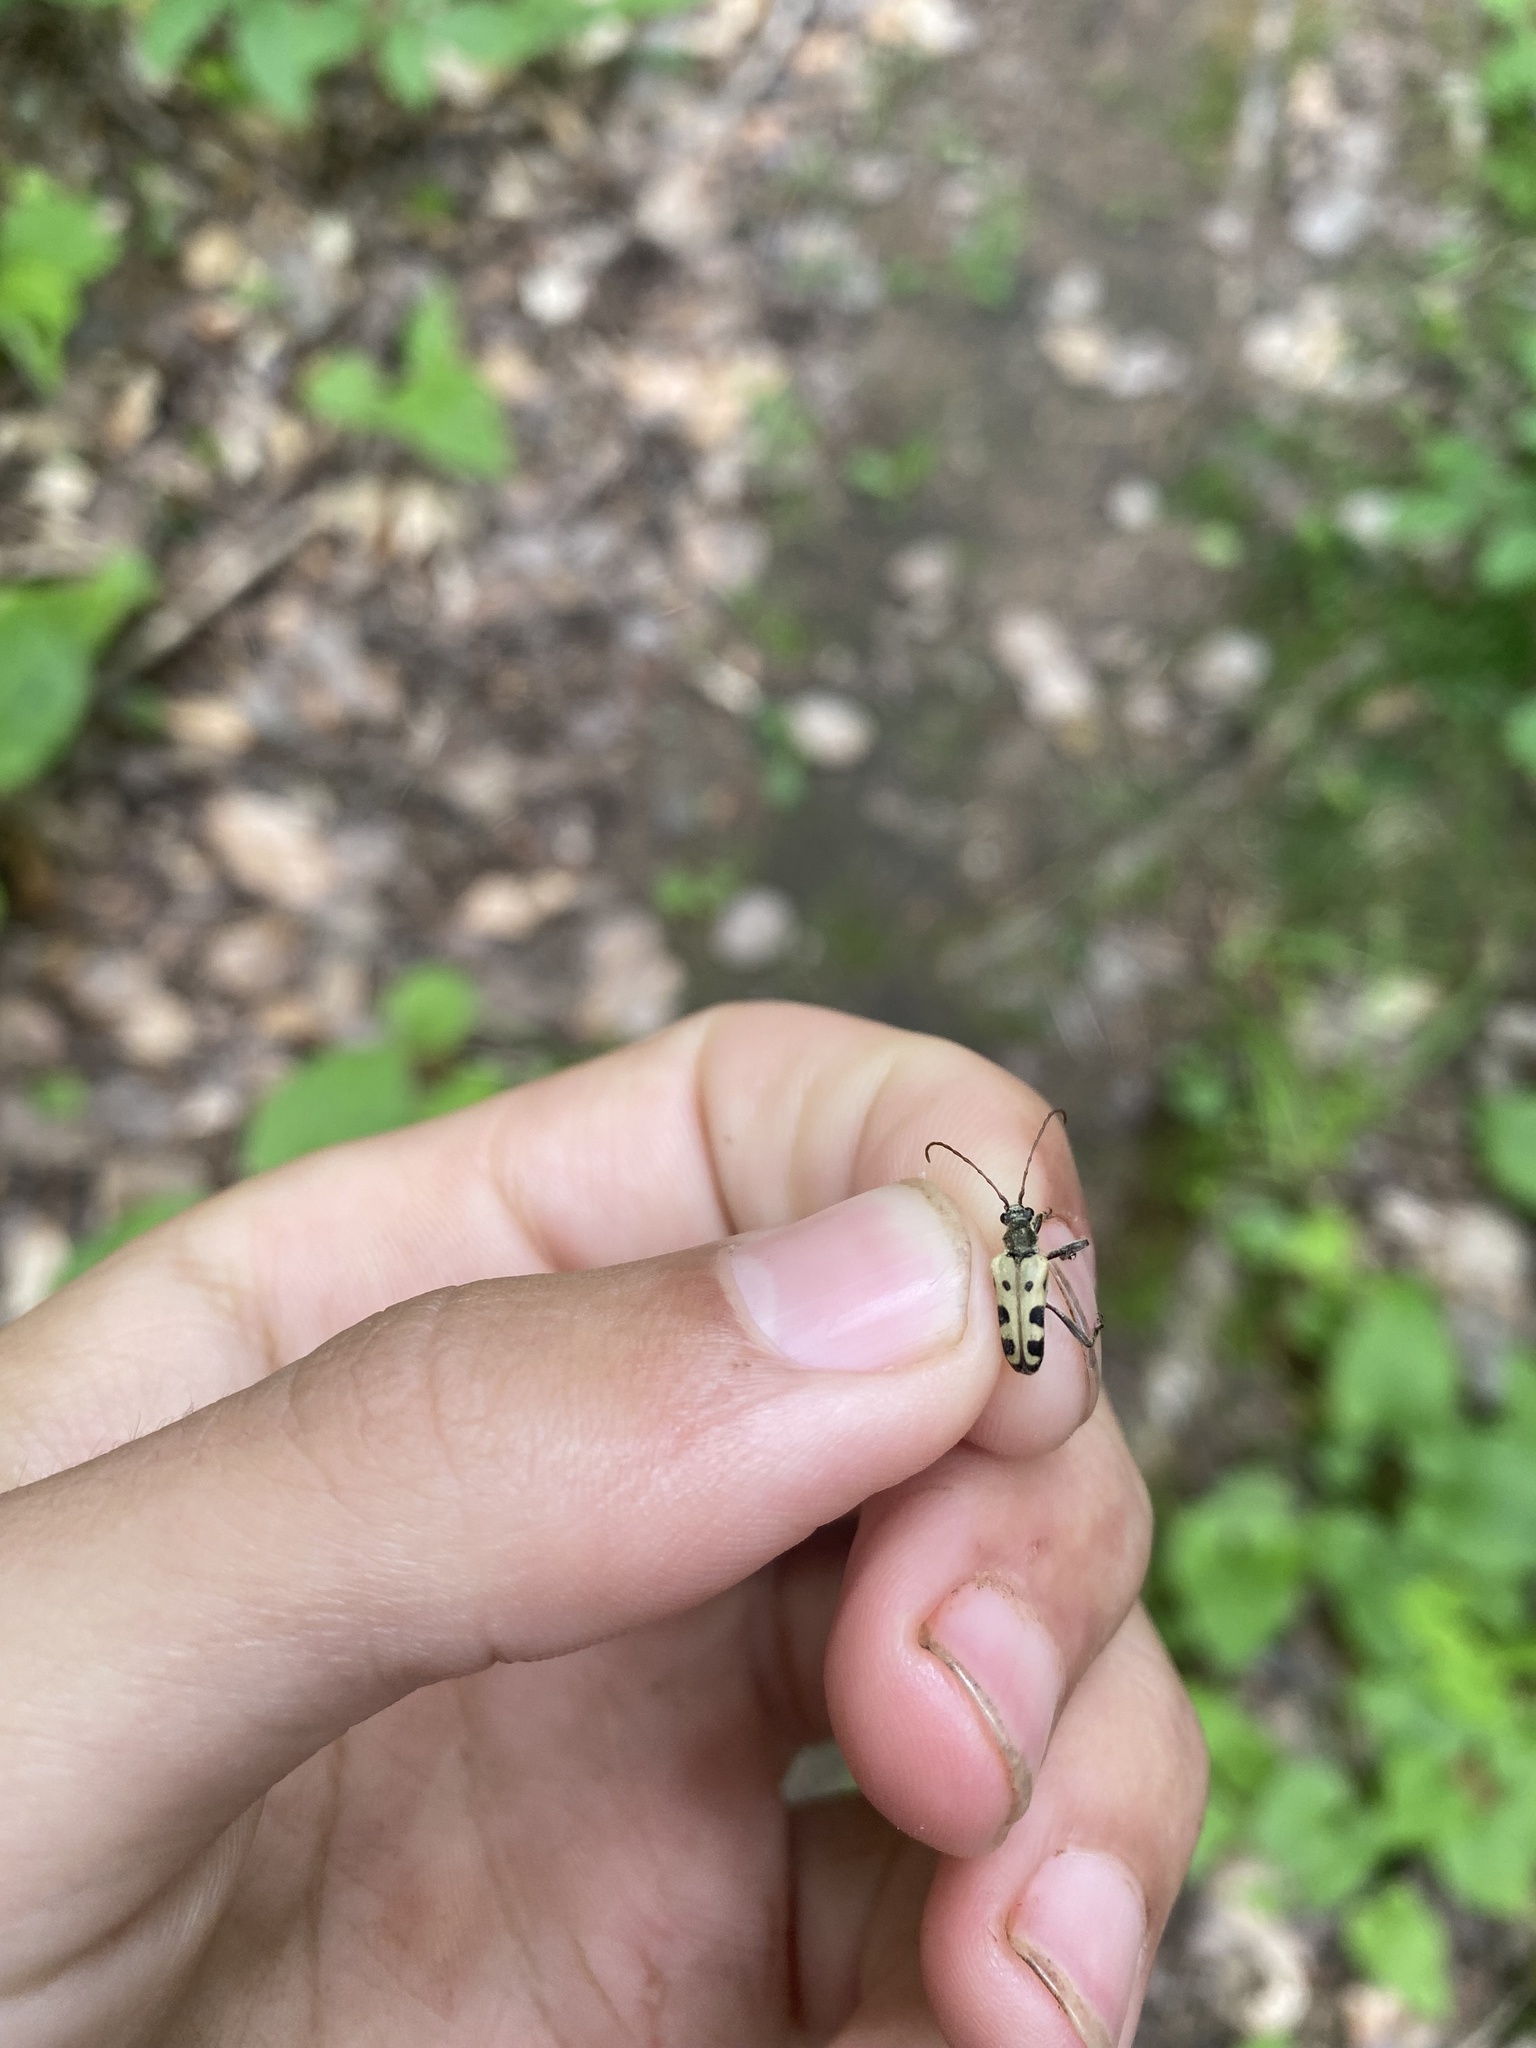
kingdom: Animalia
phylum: Arthropoda
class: Insecta
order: Coleoptera
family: Cerambycidae
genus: Evodinus
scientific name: Evodinus monticola
